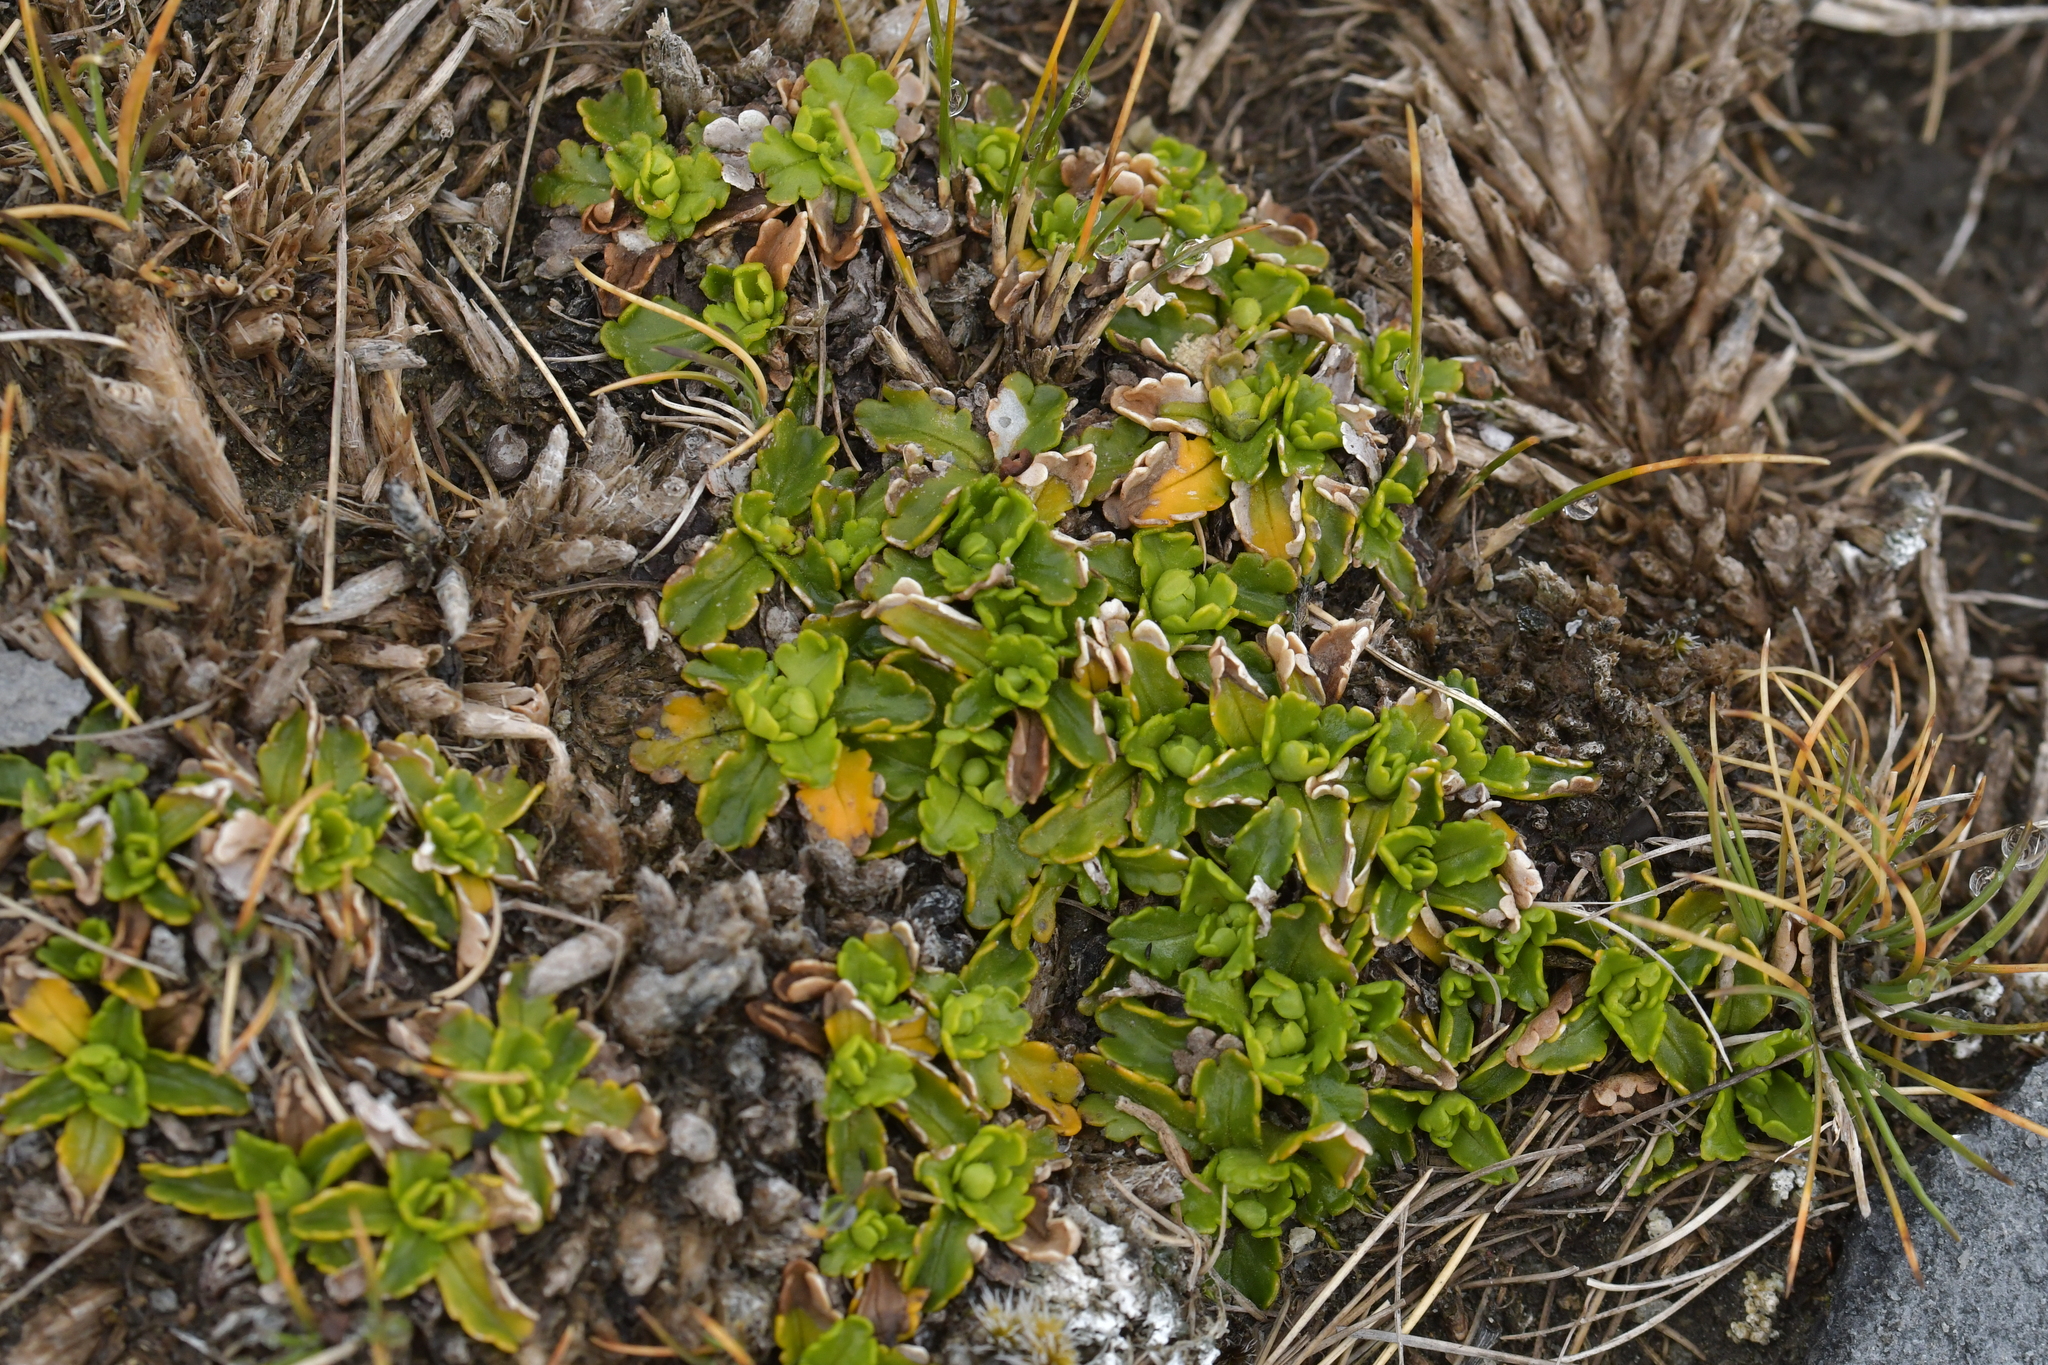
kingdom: Plantae
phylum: Tracheophyta
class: Magnoliopsida
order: Asterales
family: Asteraceae
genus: Brachyscome
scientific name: Brachyscome sinclairii
